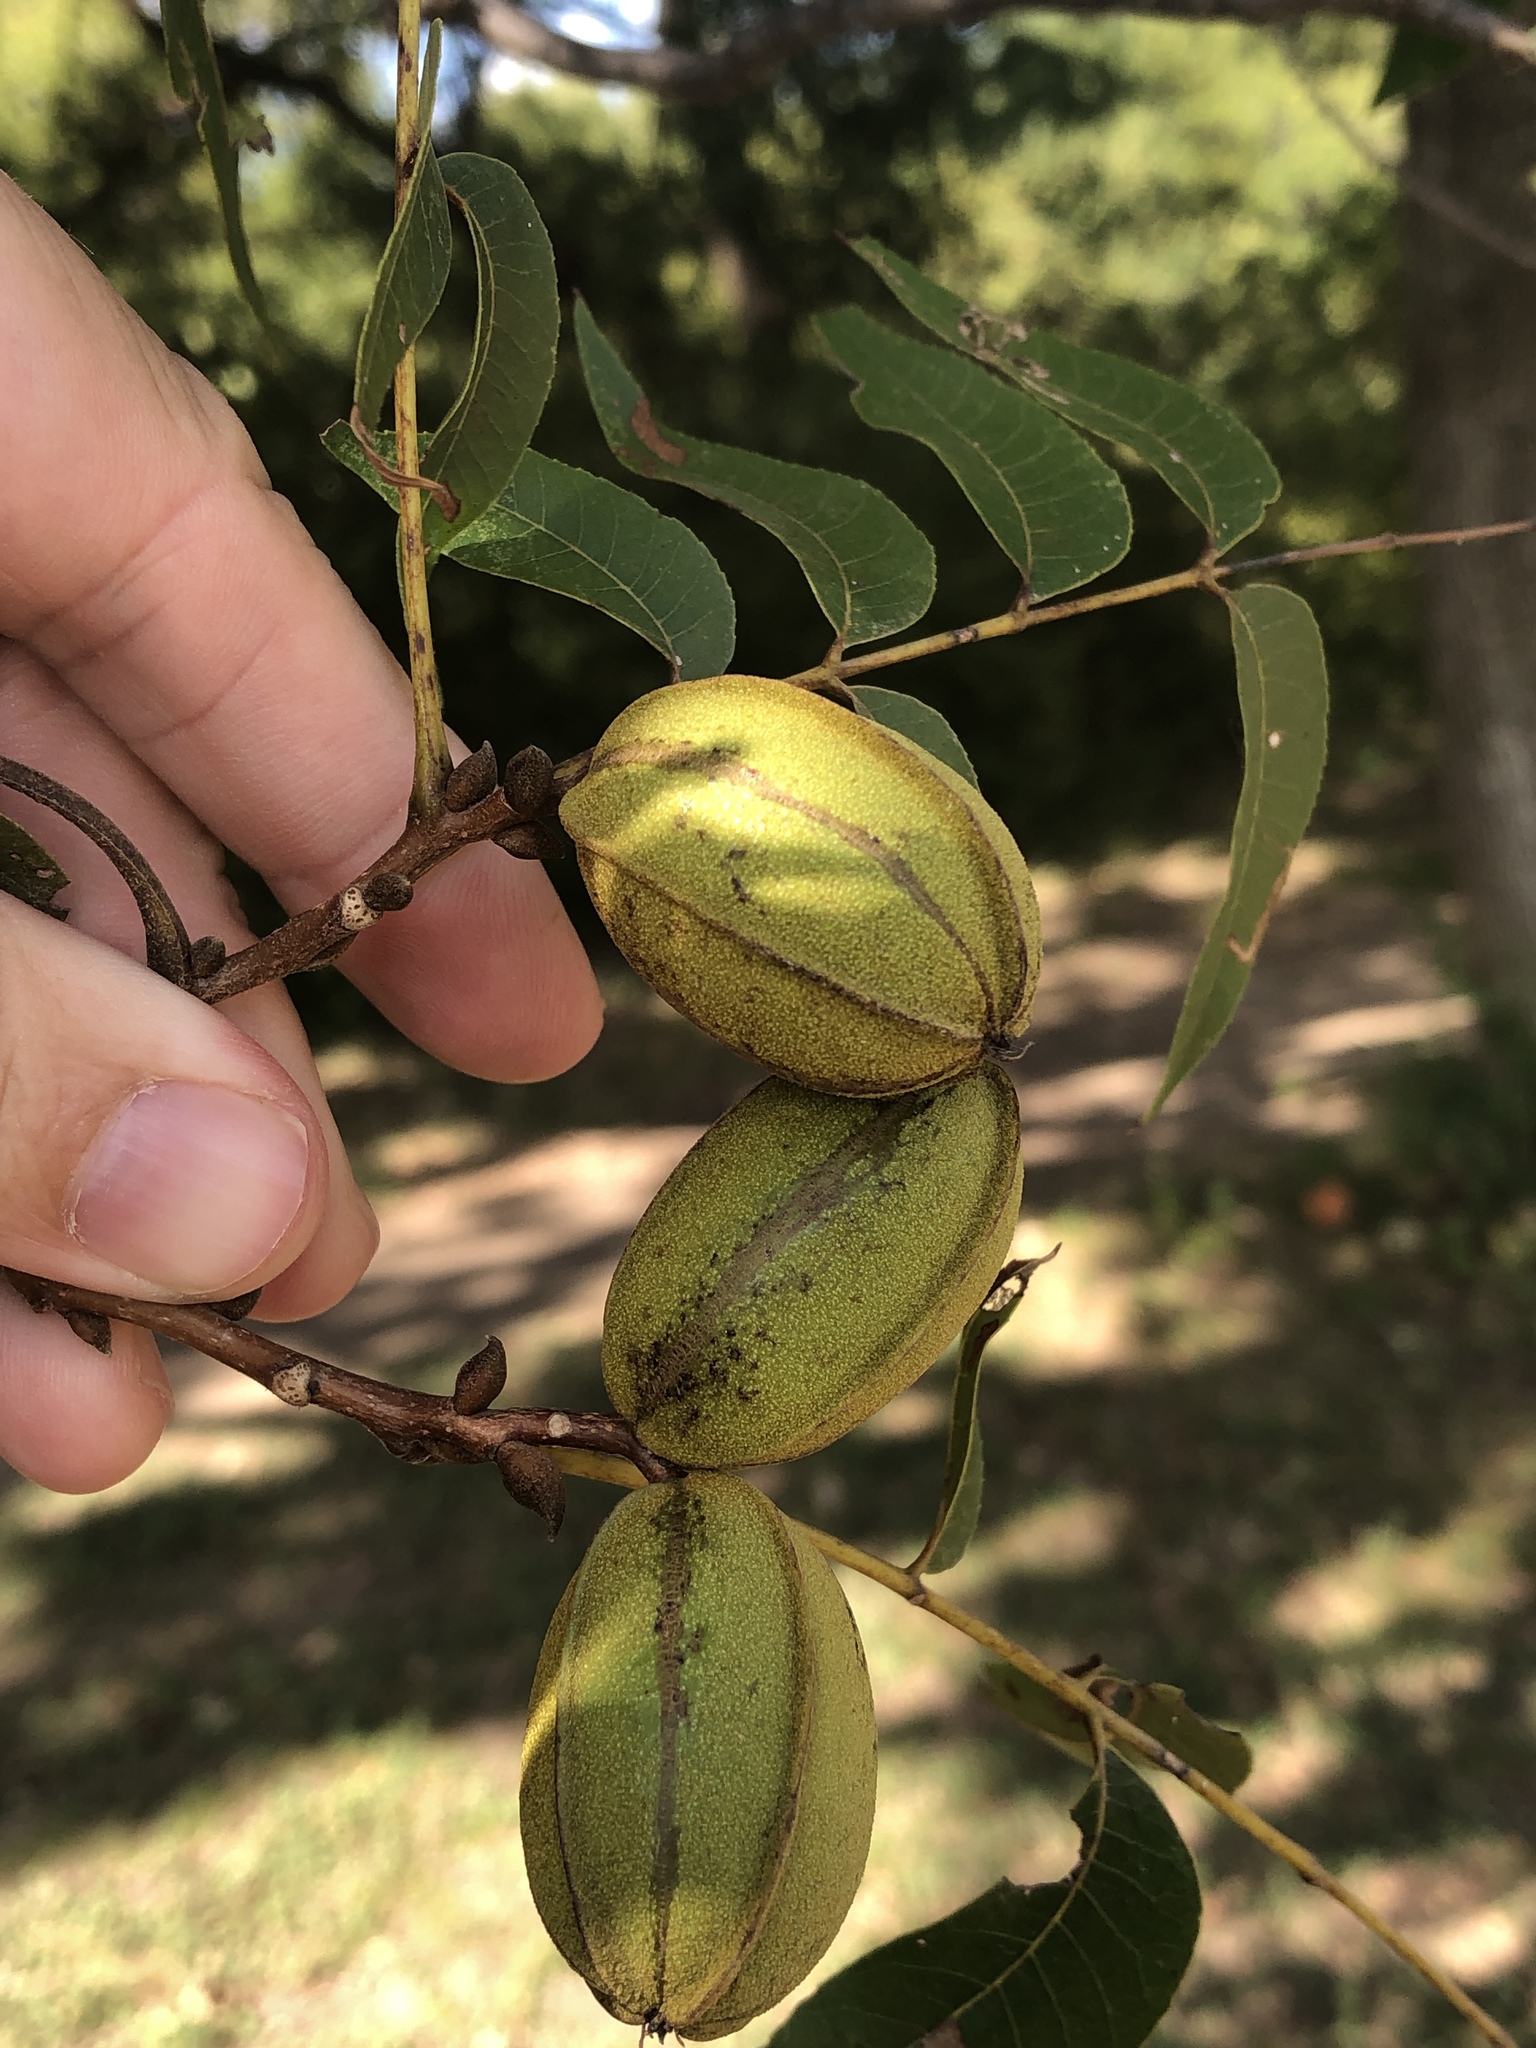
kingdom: Plantae
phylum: Tracheophyta
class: Magnoliopsida
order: Fagales
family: Juglandaceae
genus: Carya
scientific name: Carya illinoinensis
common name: Pecan
